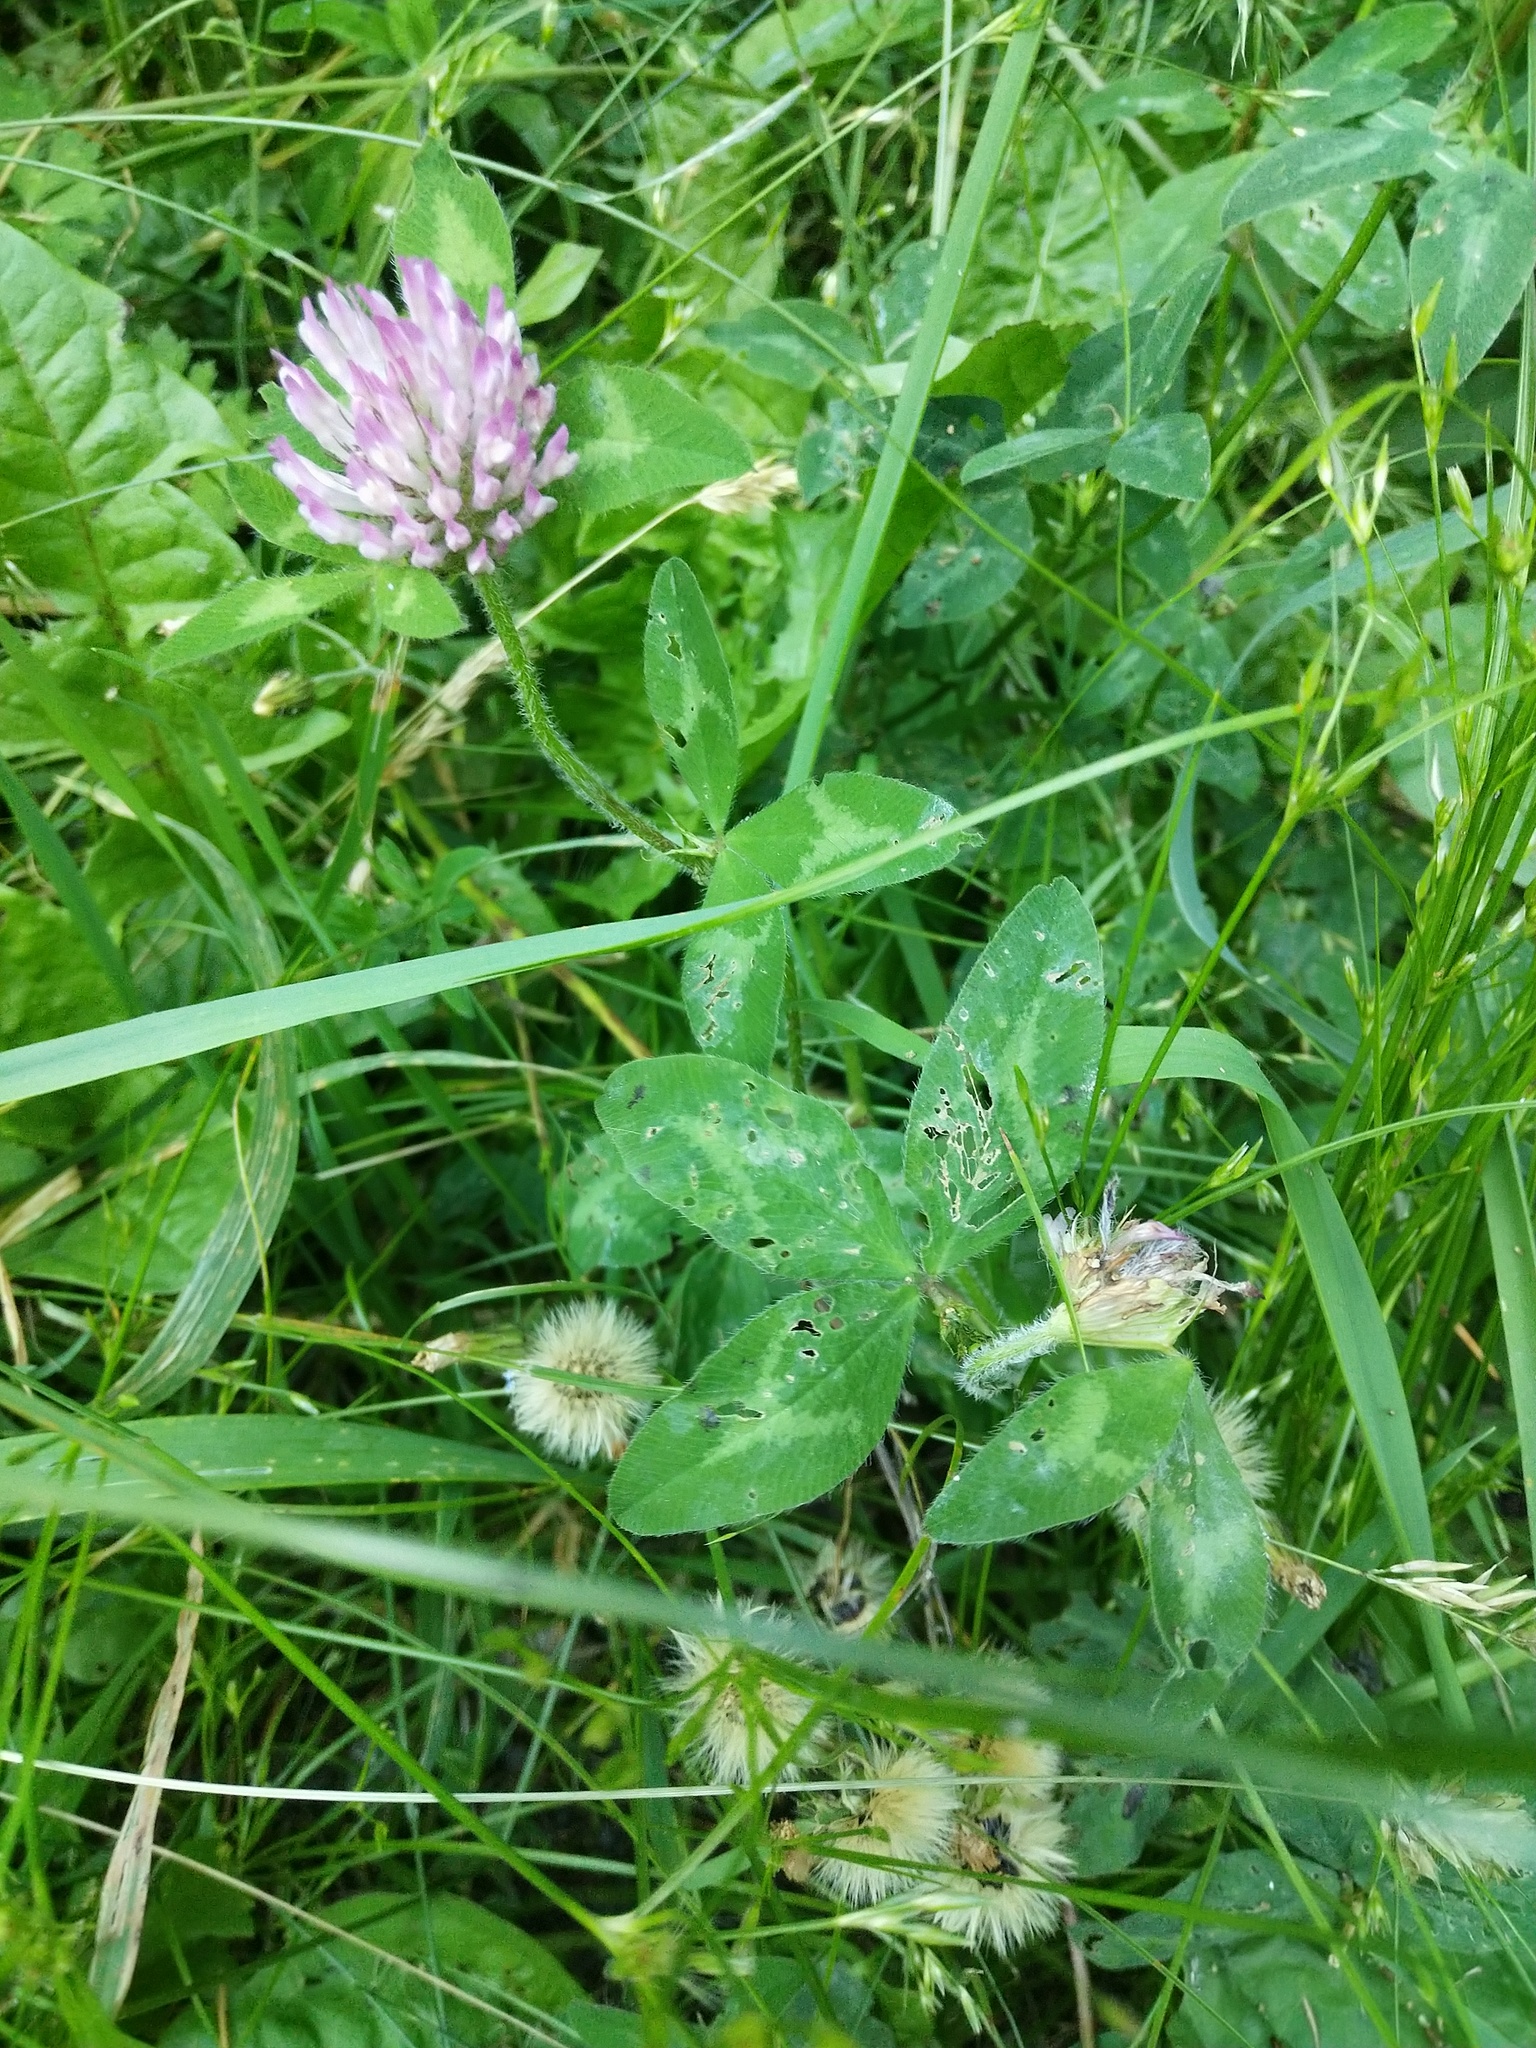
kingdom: Plantae
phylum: Tracheophyta
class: Magnoliopsida
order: Fabales
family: Fabaceae
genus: Trifolium
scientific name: Trifolium pratense
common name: Red clover
